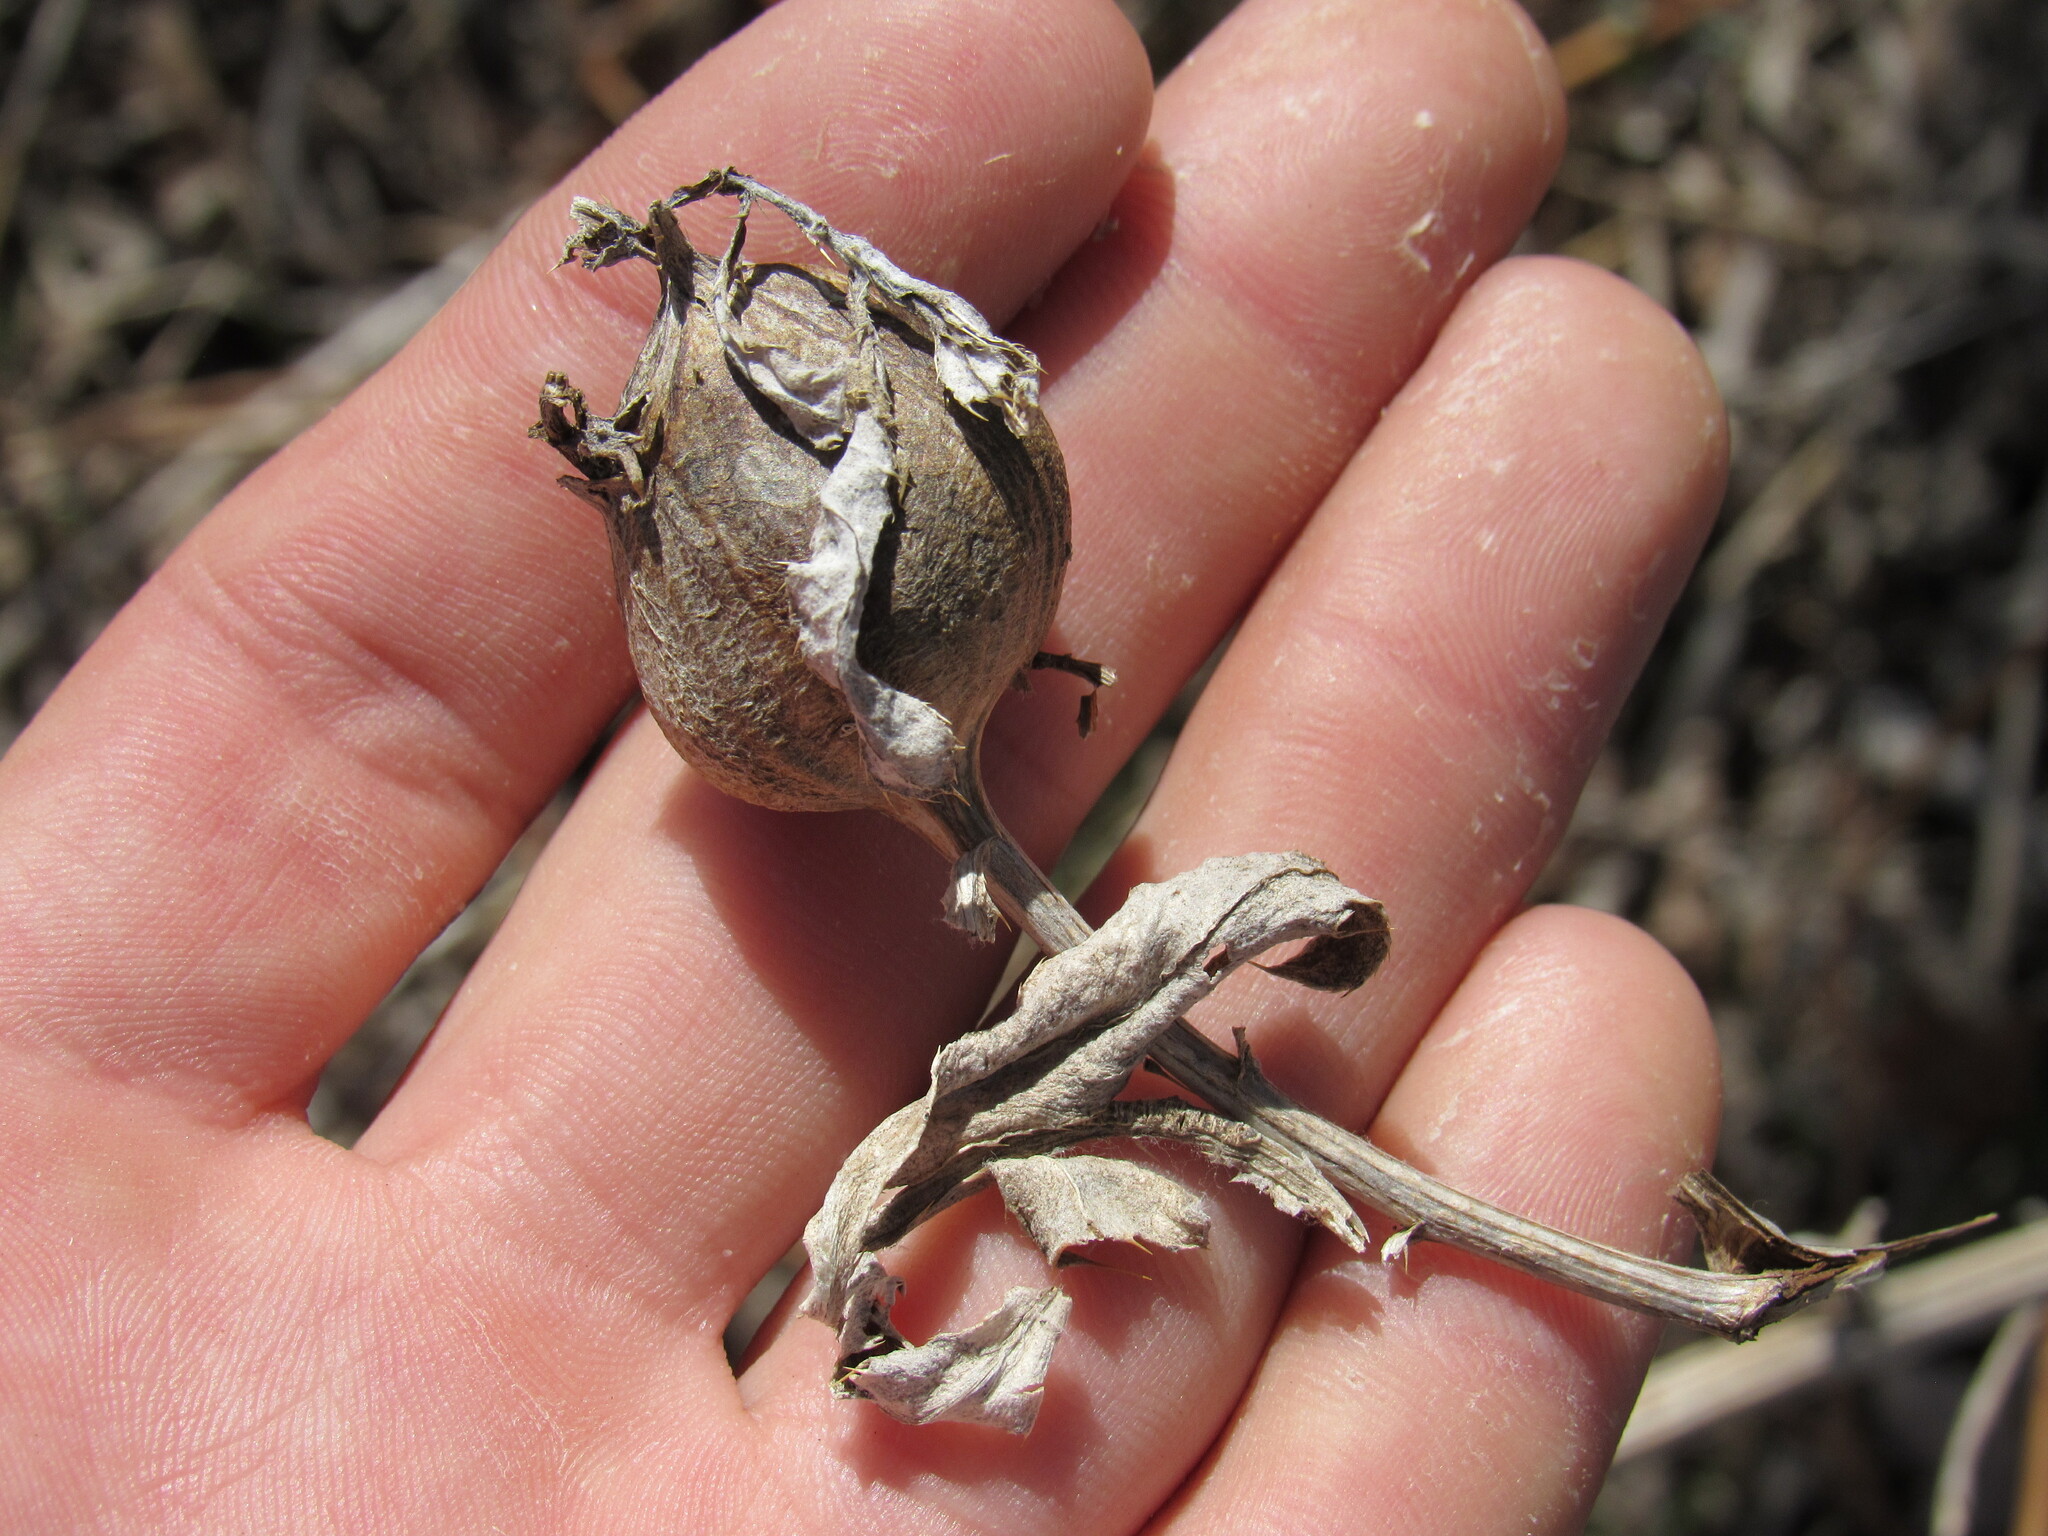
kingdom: Animalia
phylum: Arthropoda
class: Insecta
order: Diptera
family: Tephritidae
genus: Urophora
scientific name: Urophora cardui
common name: Fruit fly
